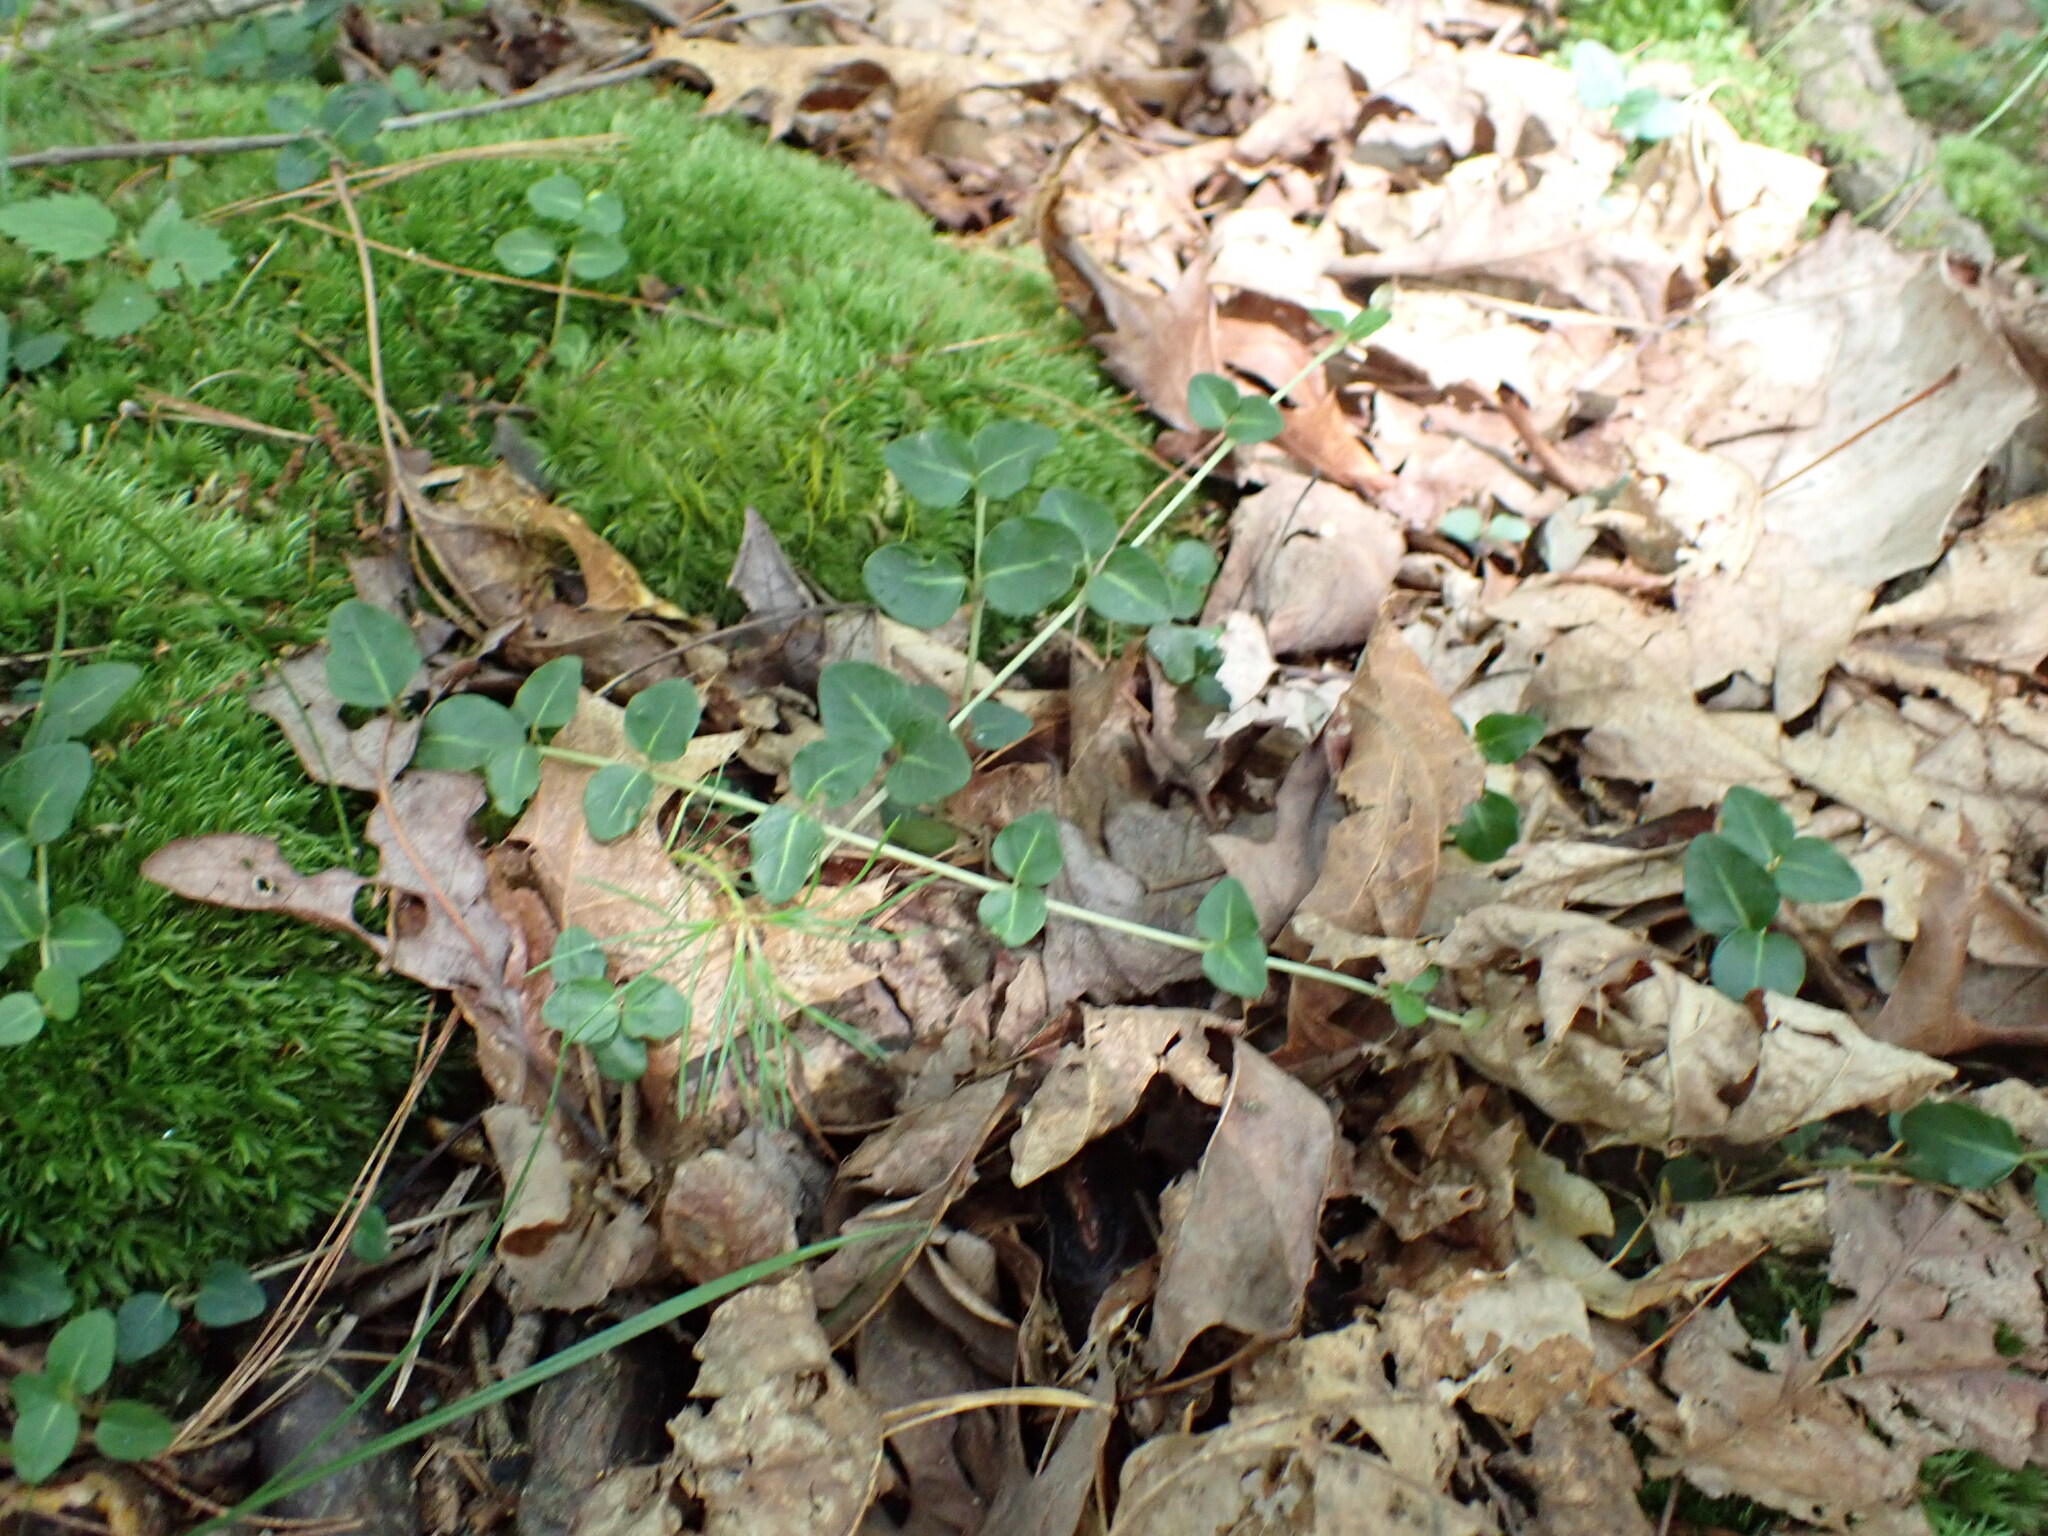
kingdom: Plantae
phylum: Tracheophyta
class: Magnoliopsida
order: Gentianales
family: Rubiaceae
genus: Mitchella
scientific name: Mitchella repens
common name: Partridge-berry
